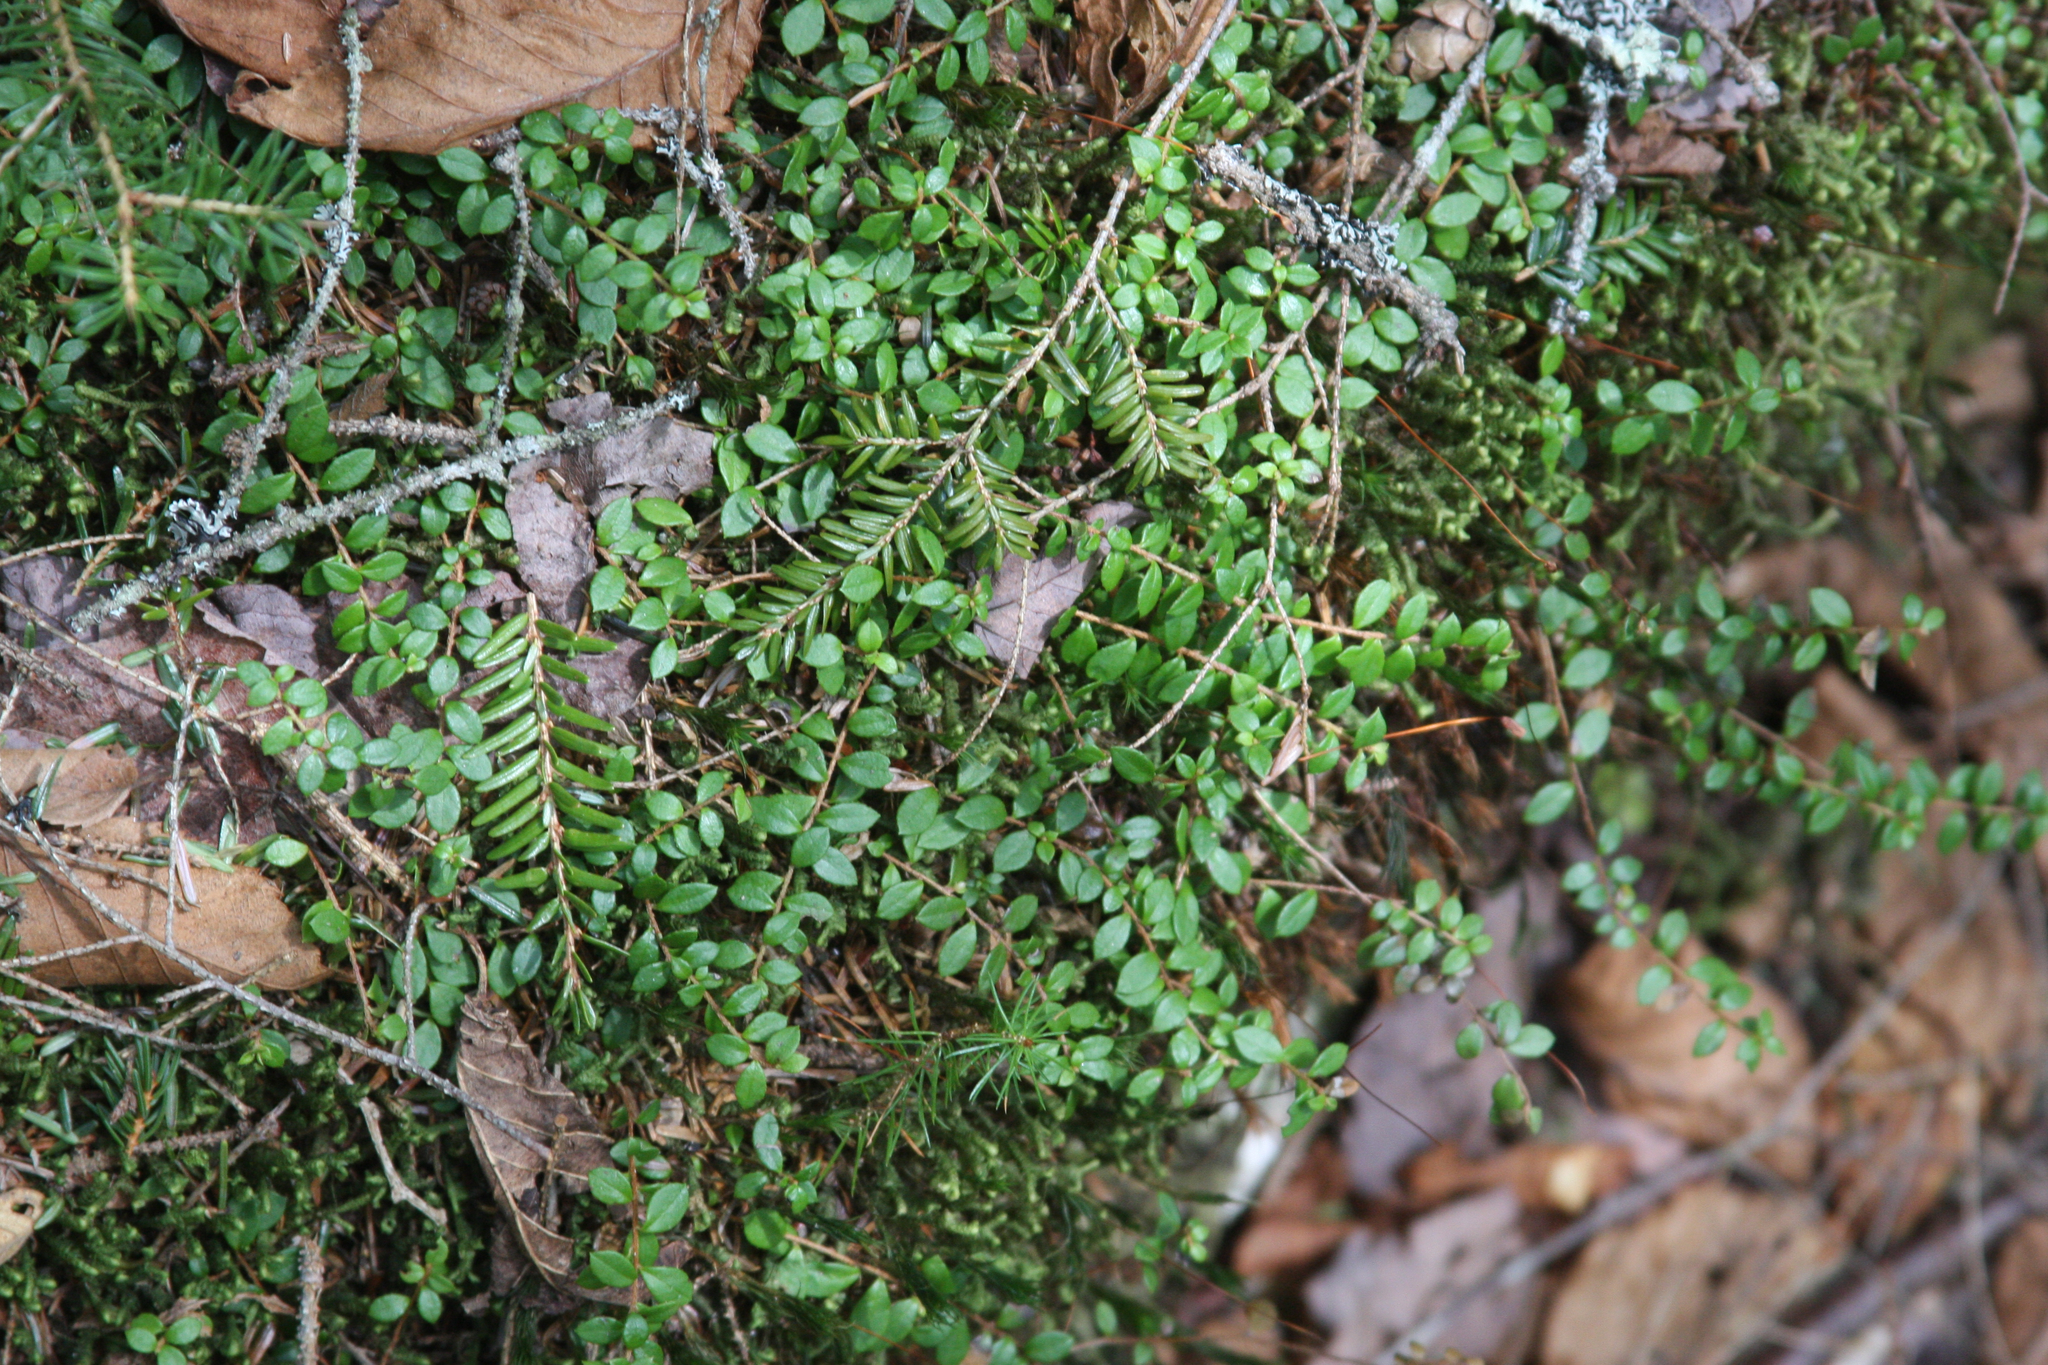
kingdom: Plantae
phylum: Tracheophyta
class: Pinopsida
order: Pinales
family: Pinaceae
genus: Tsuga
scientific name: Tsuga canadensis
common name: Eastern hemlock
